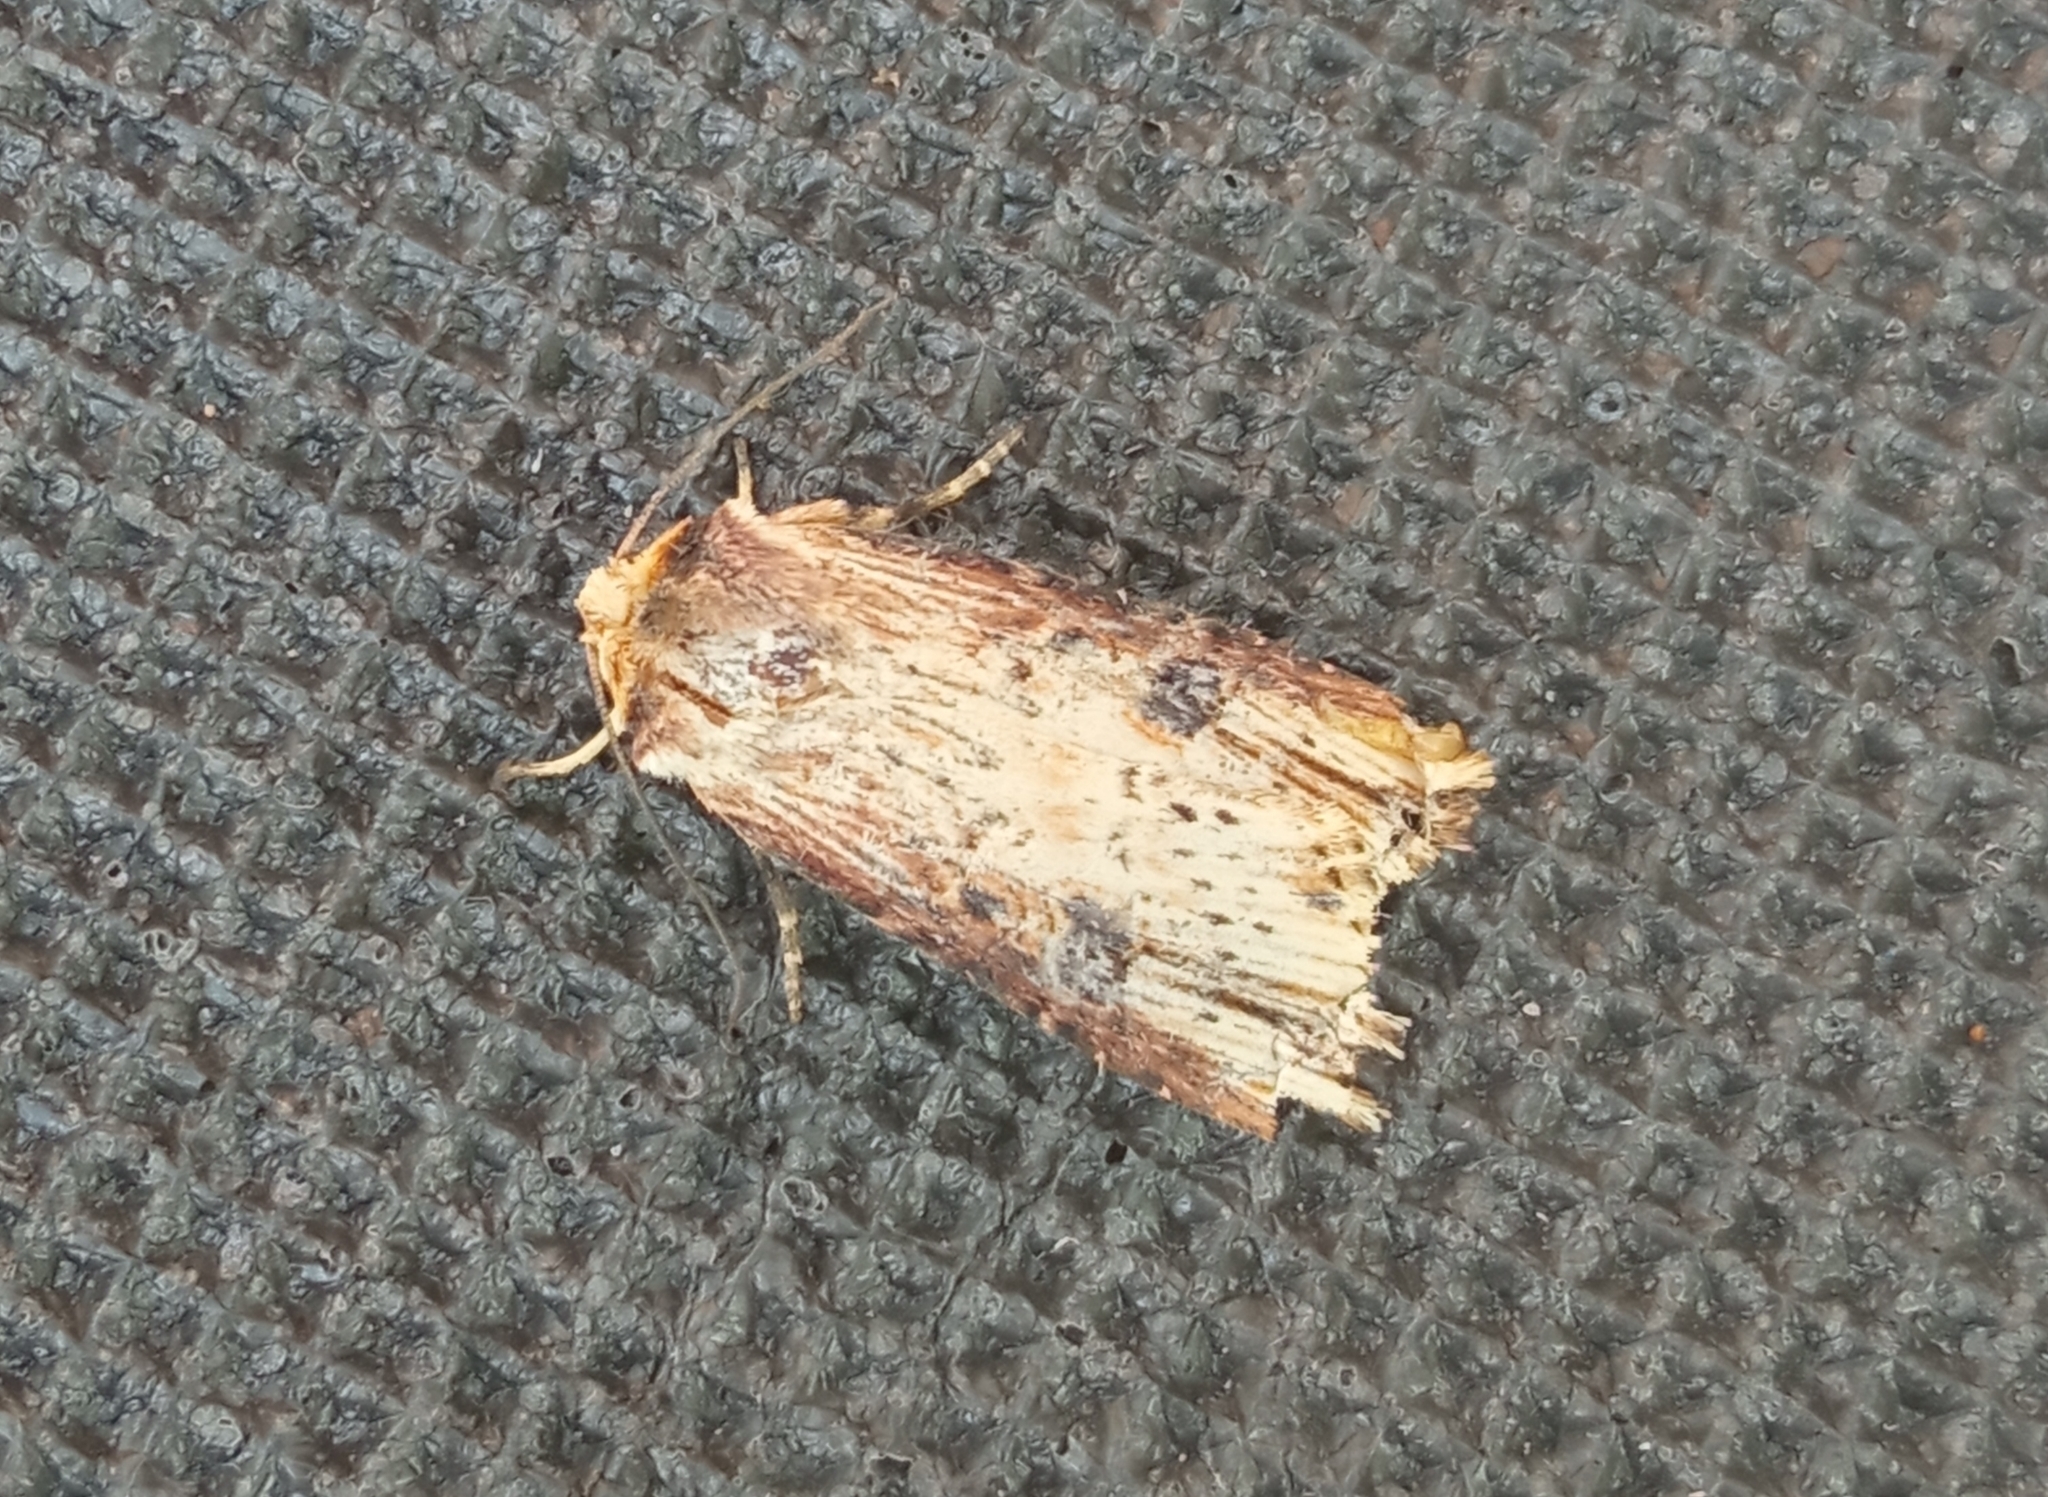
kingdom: Animalia
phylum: Arthropoda
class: Insecta
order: Lepidoptera
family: Noctuidae
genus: Axylia
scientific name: Axylia putris
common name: Flame
